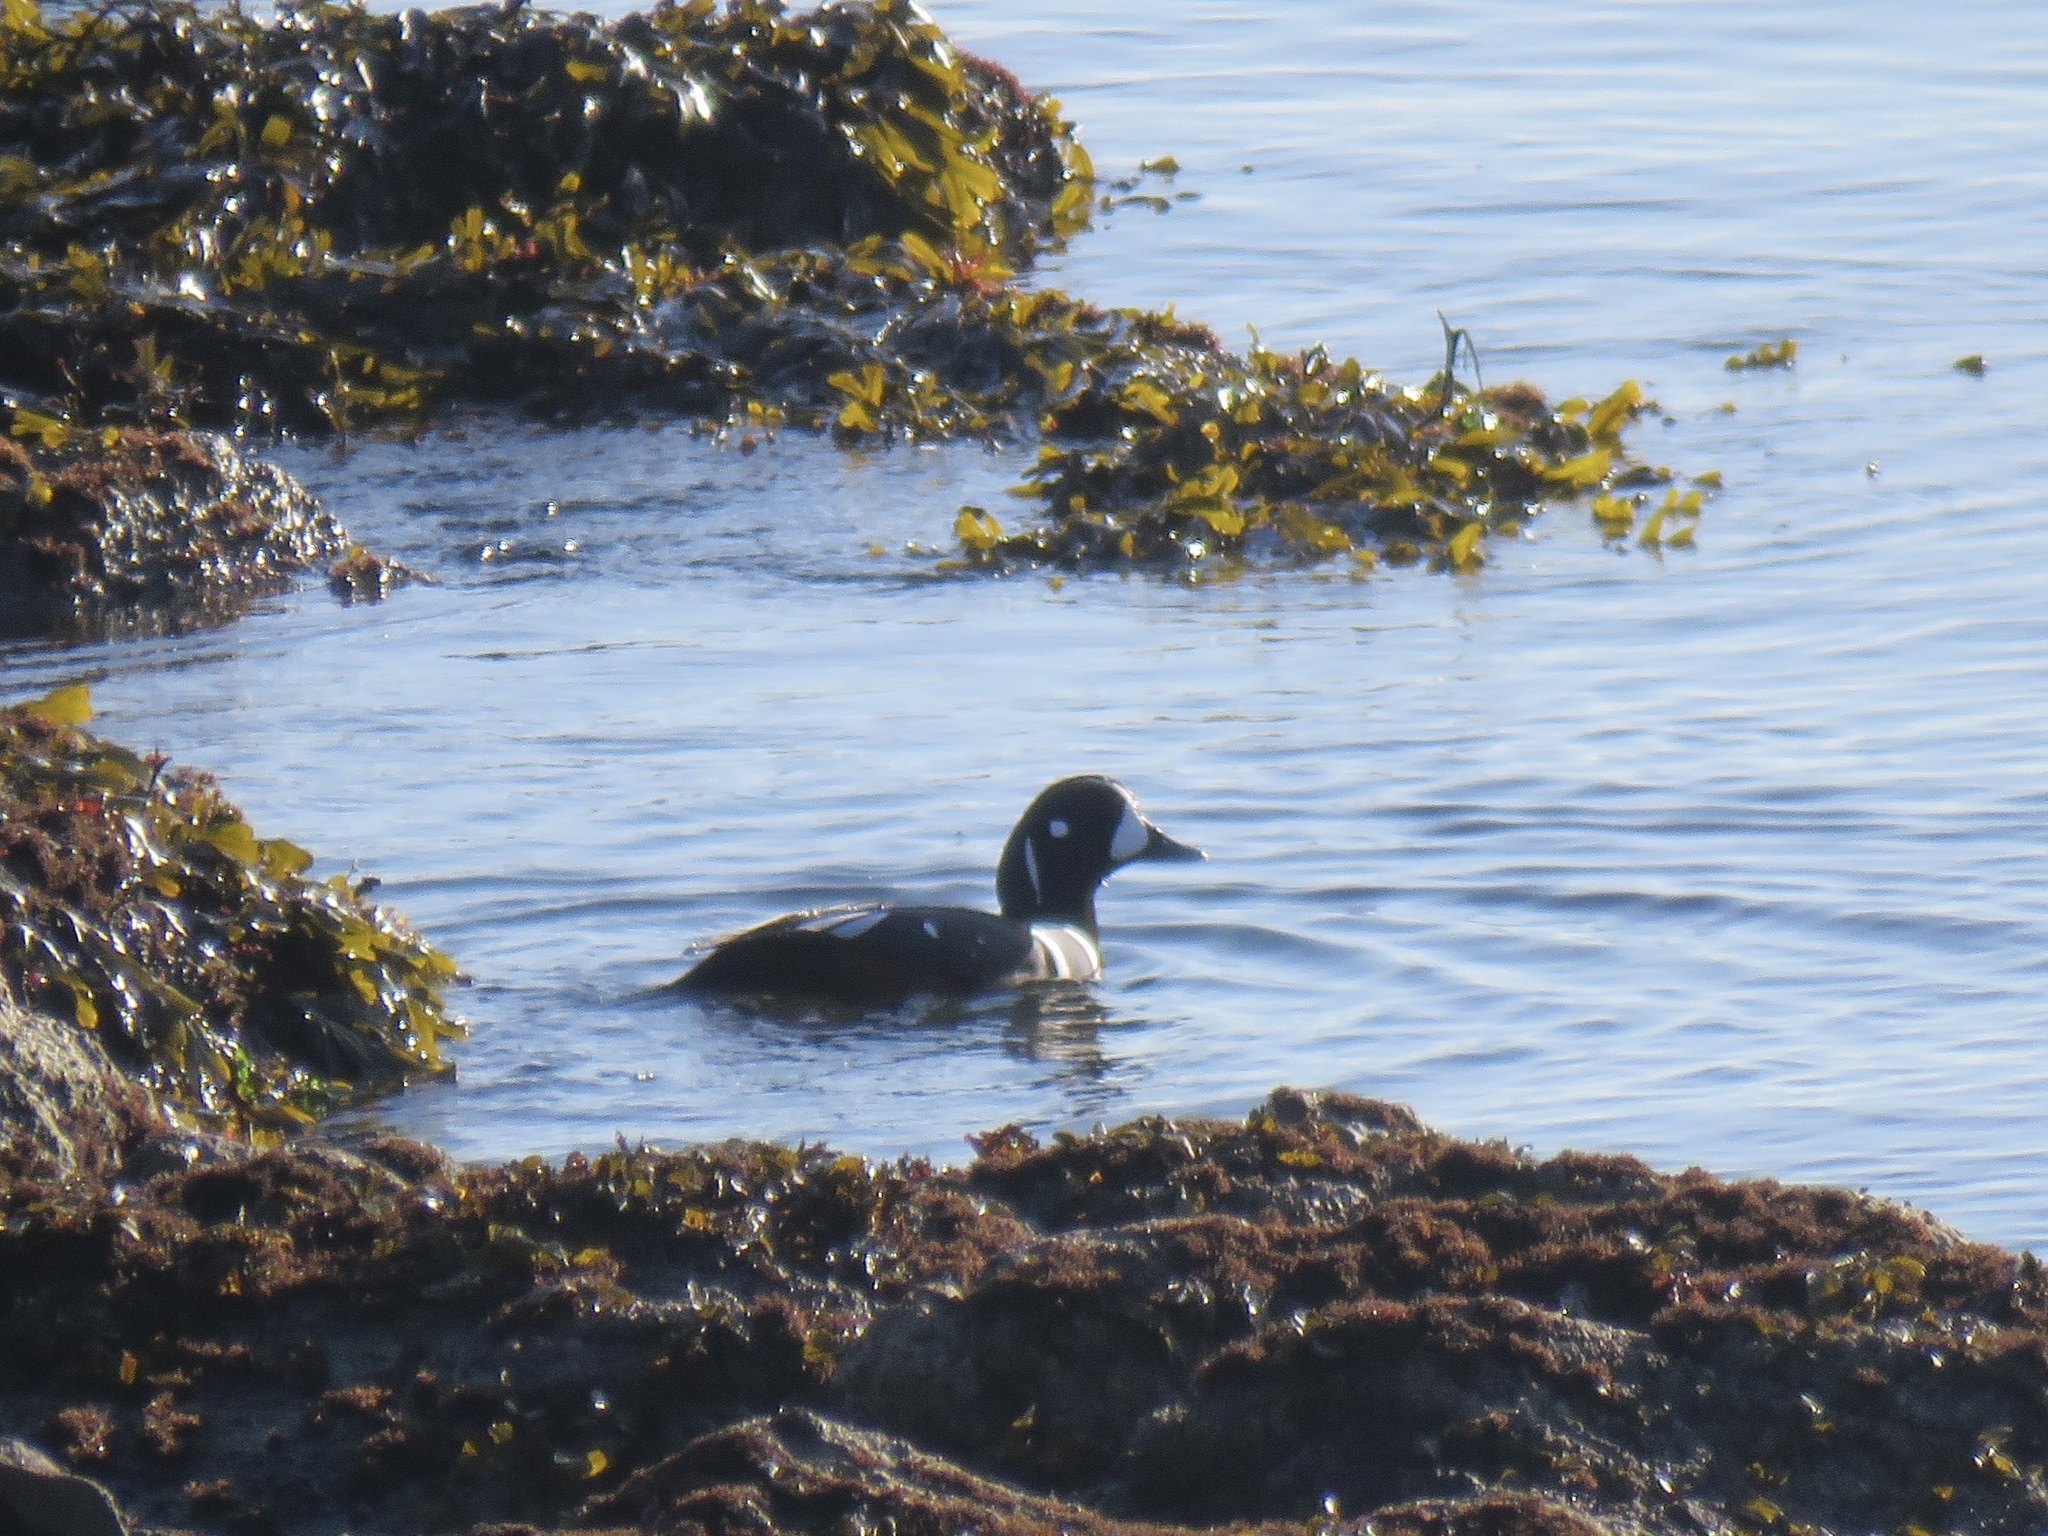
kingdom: Animalia
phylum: Chordata
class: Aves
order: Anseriformes
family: Anatidae
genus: Histrionicus
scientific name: Histrionicus histrionicus
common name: Harlequin duck
